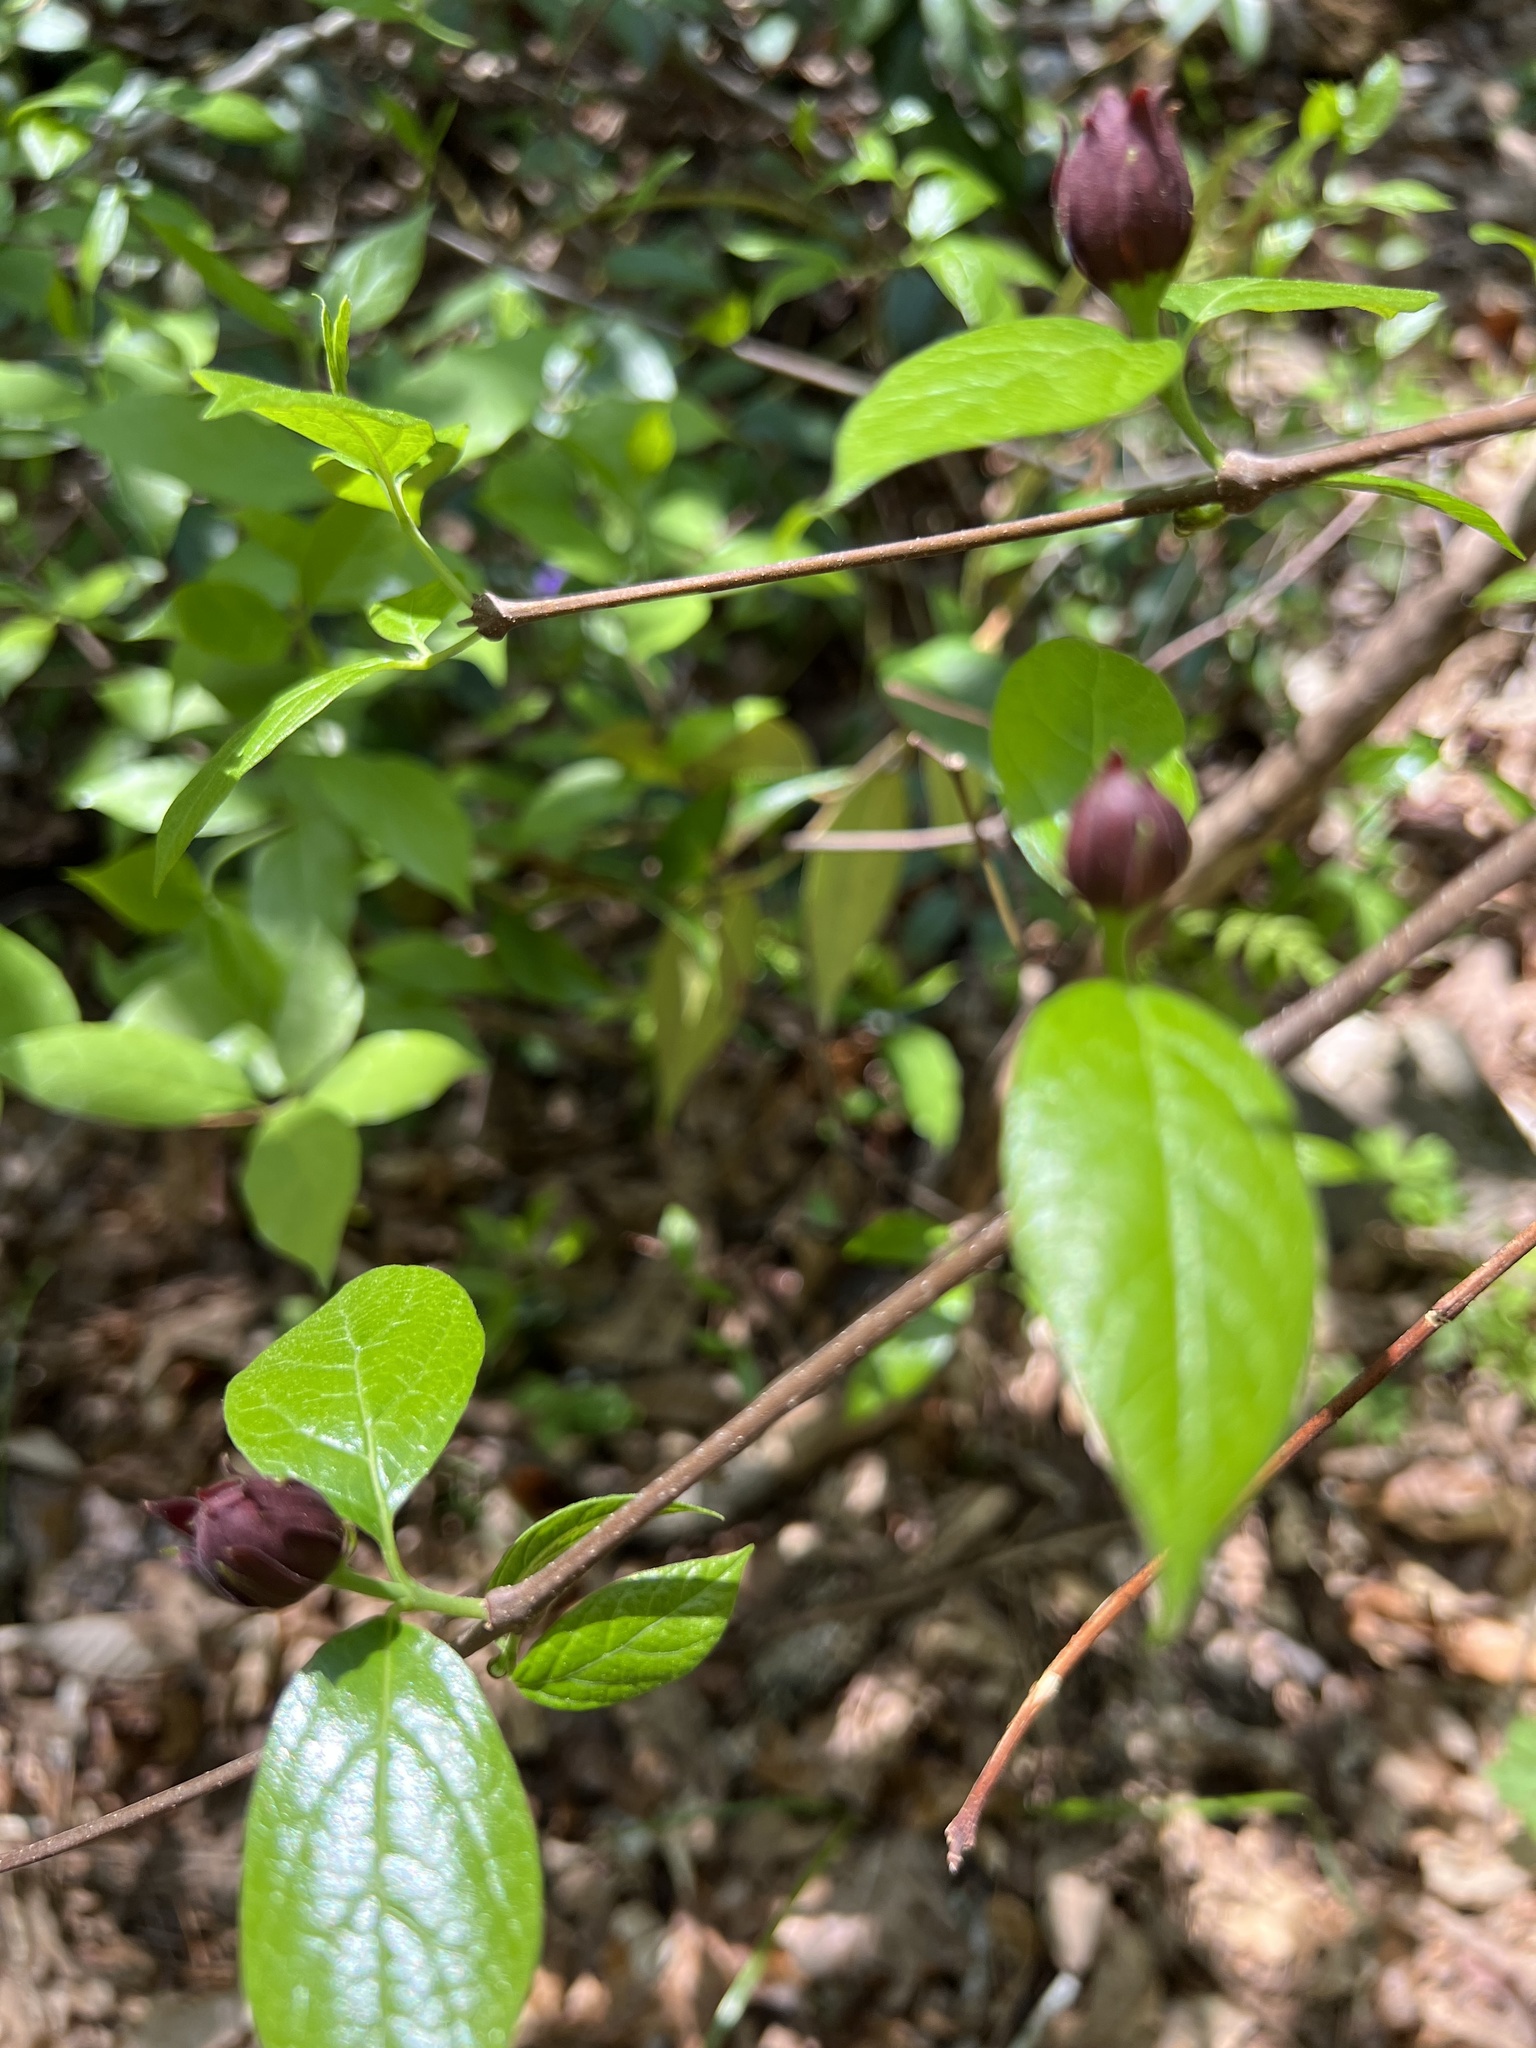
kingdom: Plantae
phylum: Tracheophyta
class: Magnoliopsida
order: Laurales
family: Calycanthaceae
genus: Calycanthus
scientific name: Calycanthus floridus
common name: Carolina-allspice
